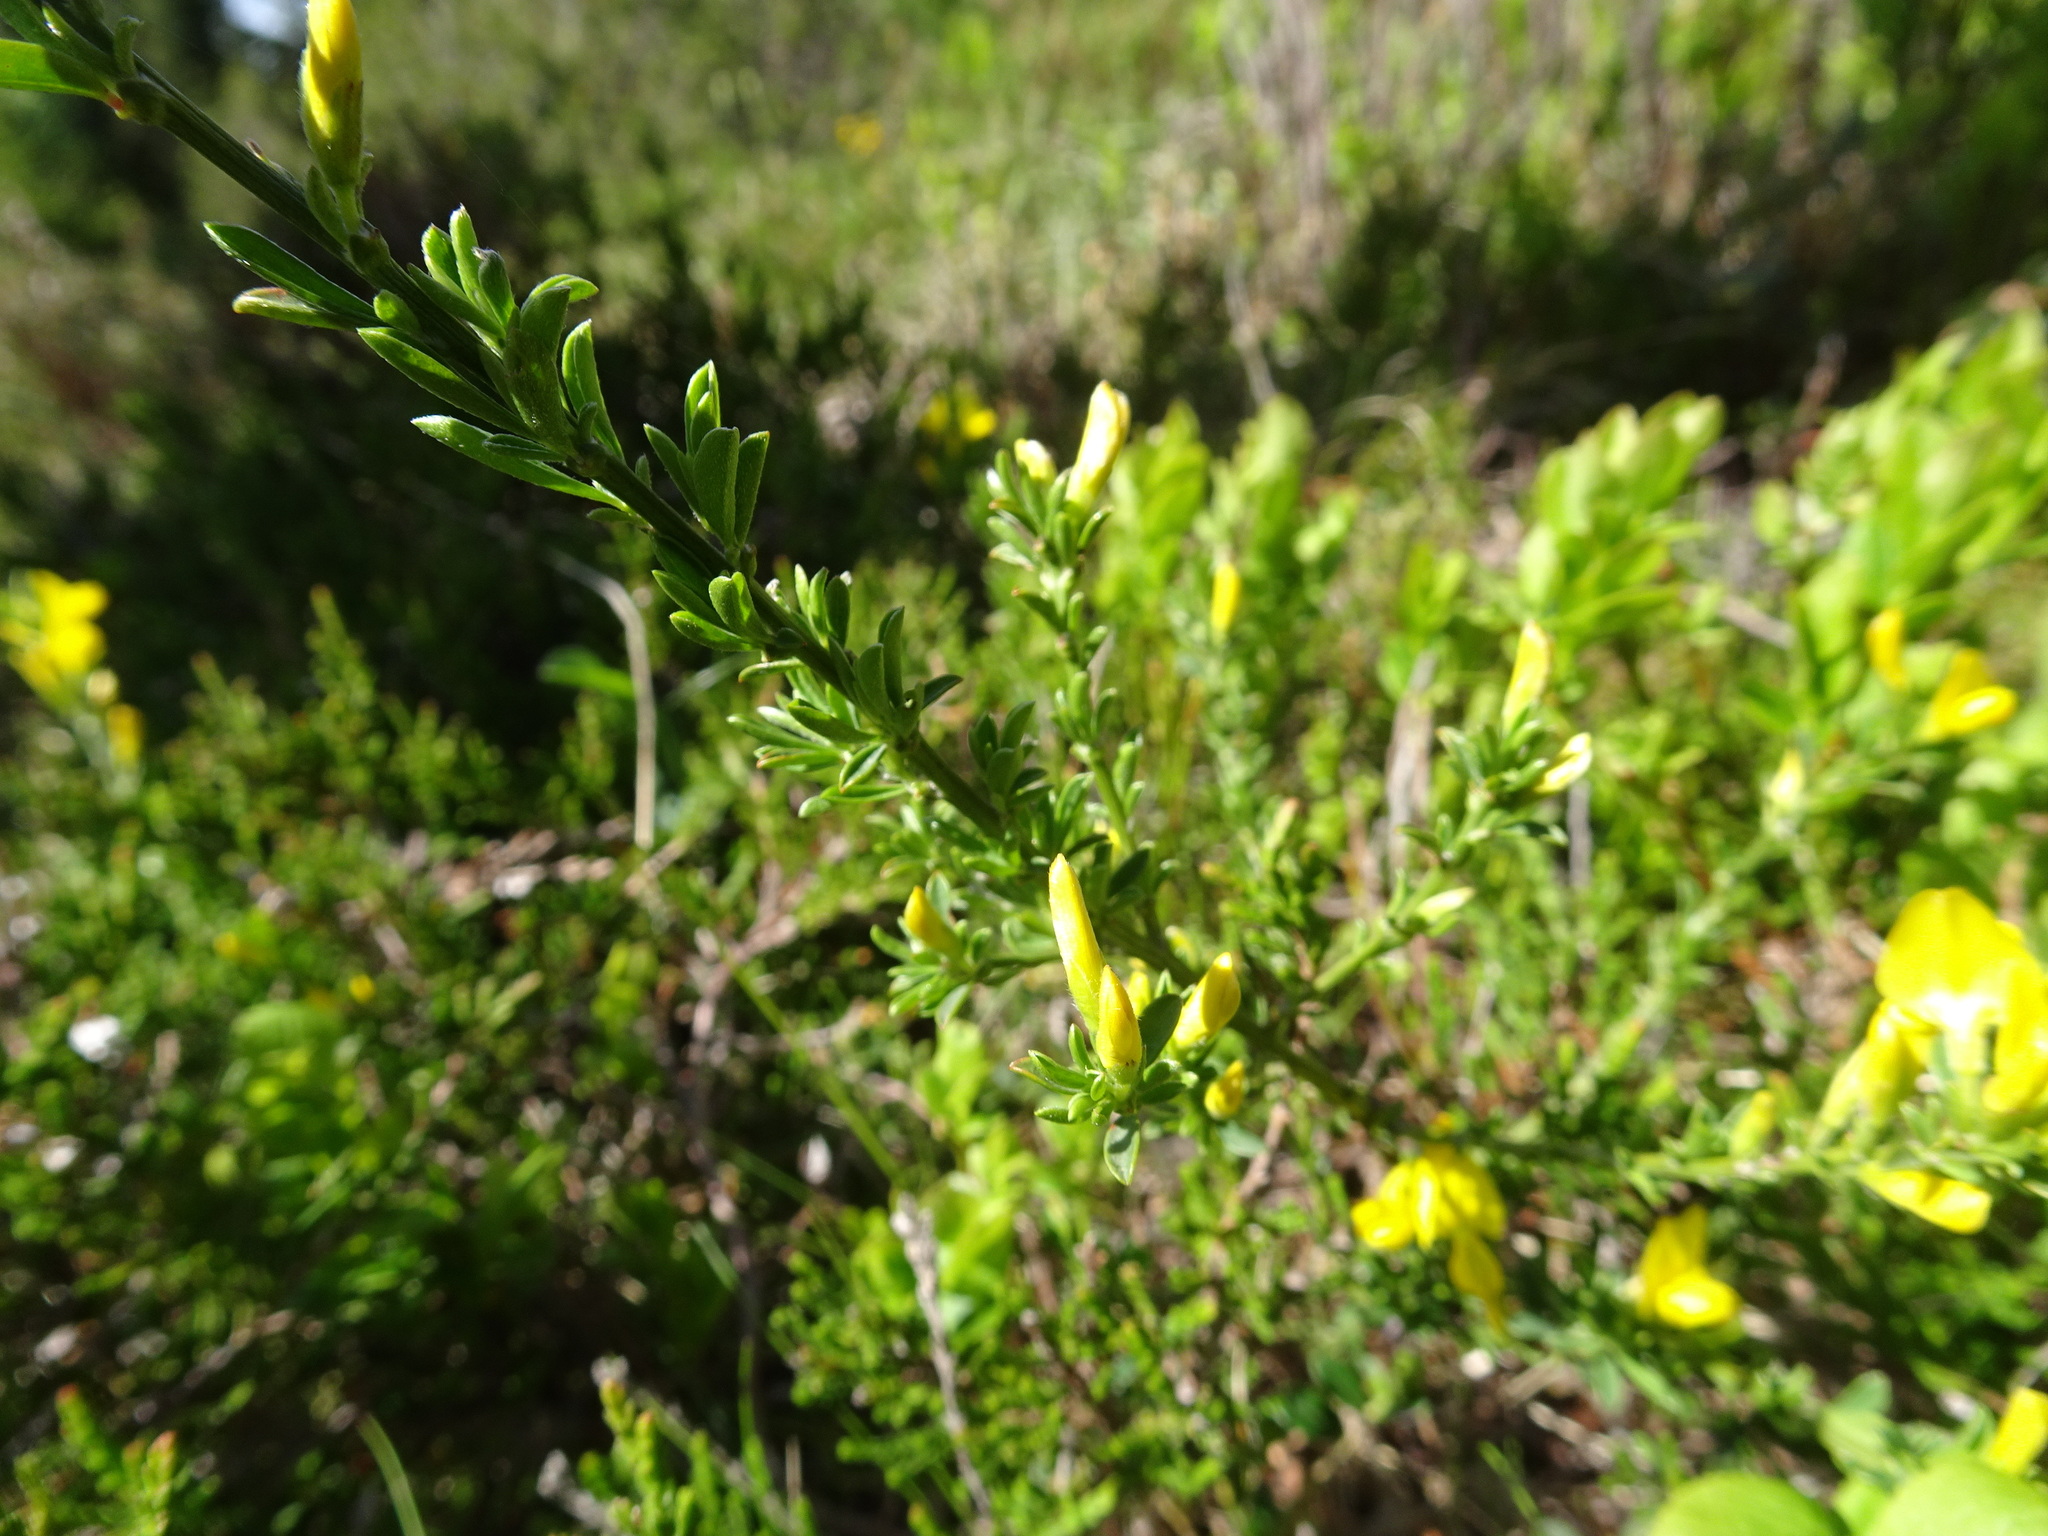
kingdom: Plantae
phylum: Tracheophyta
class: Magnoliopsida
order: Fabales
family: Fabaceae
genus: Genista
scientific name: Genista pilosa
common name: Hairy greenweed
